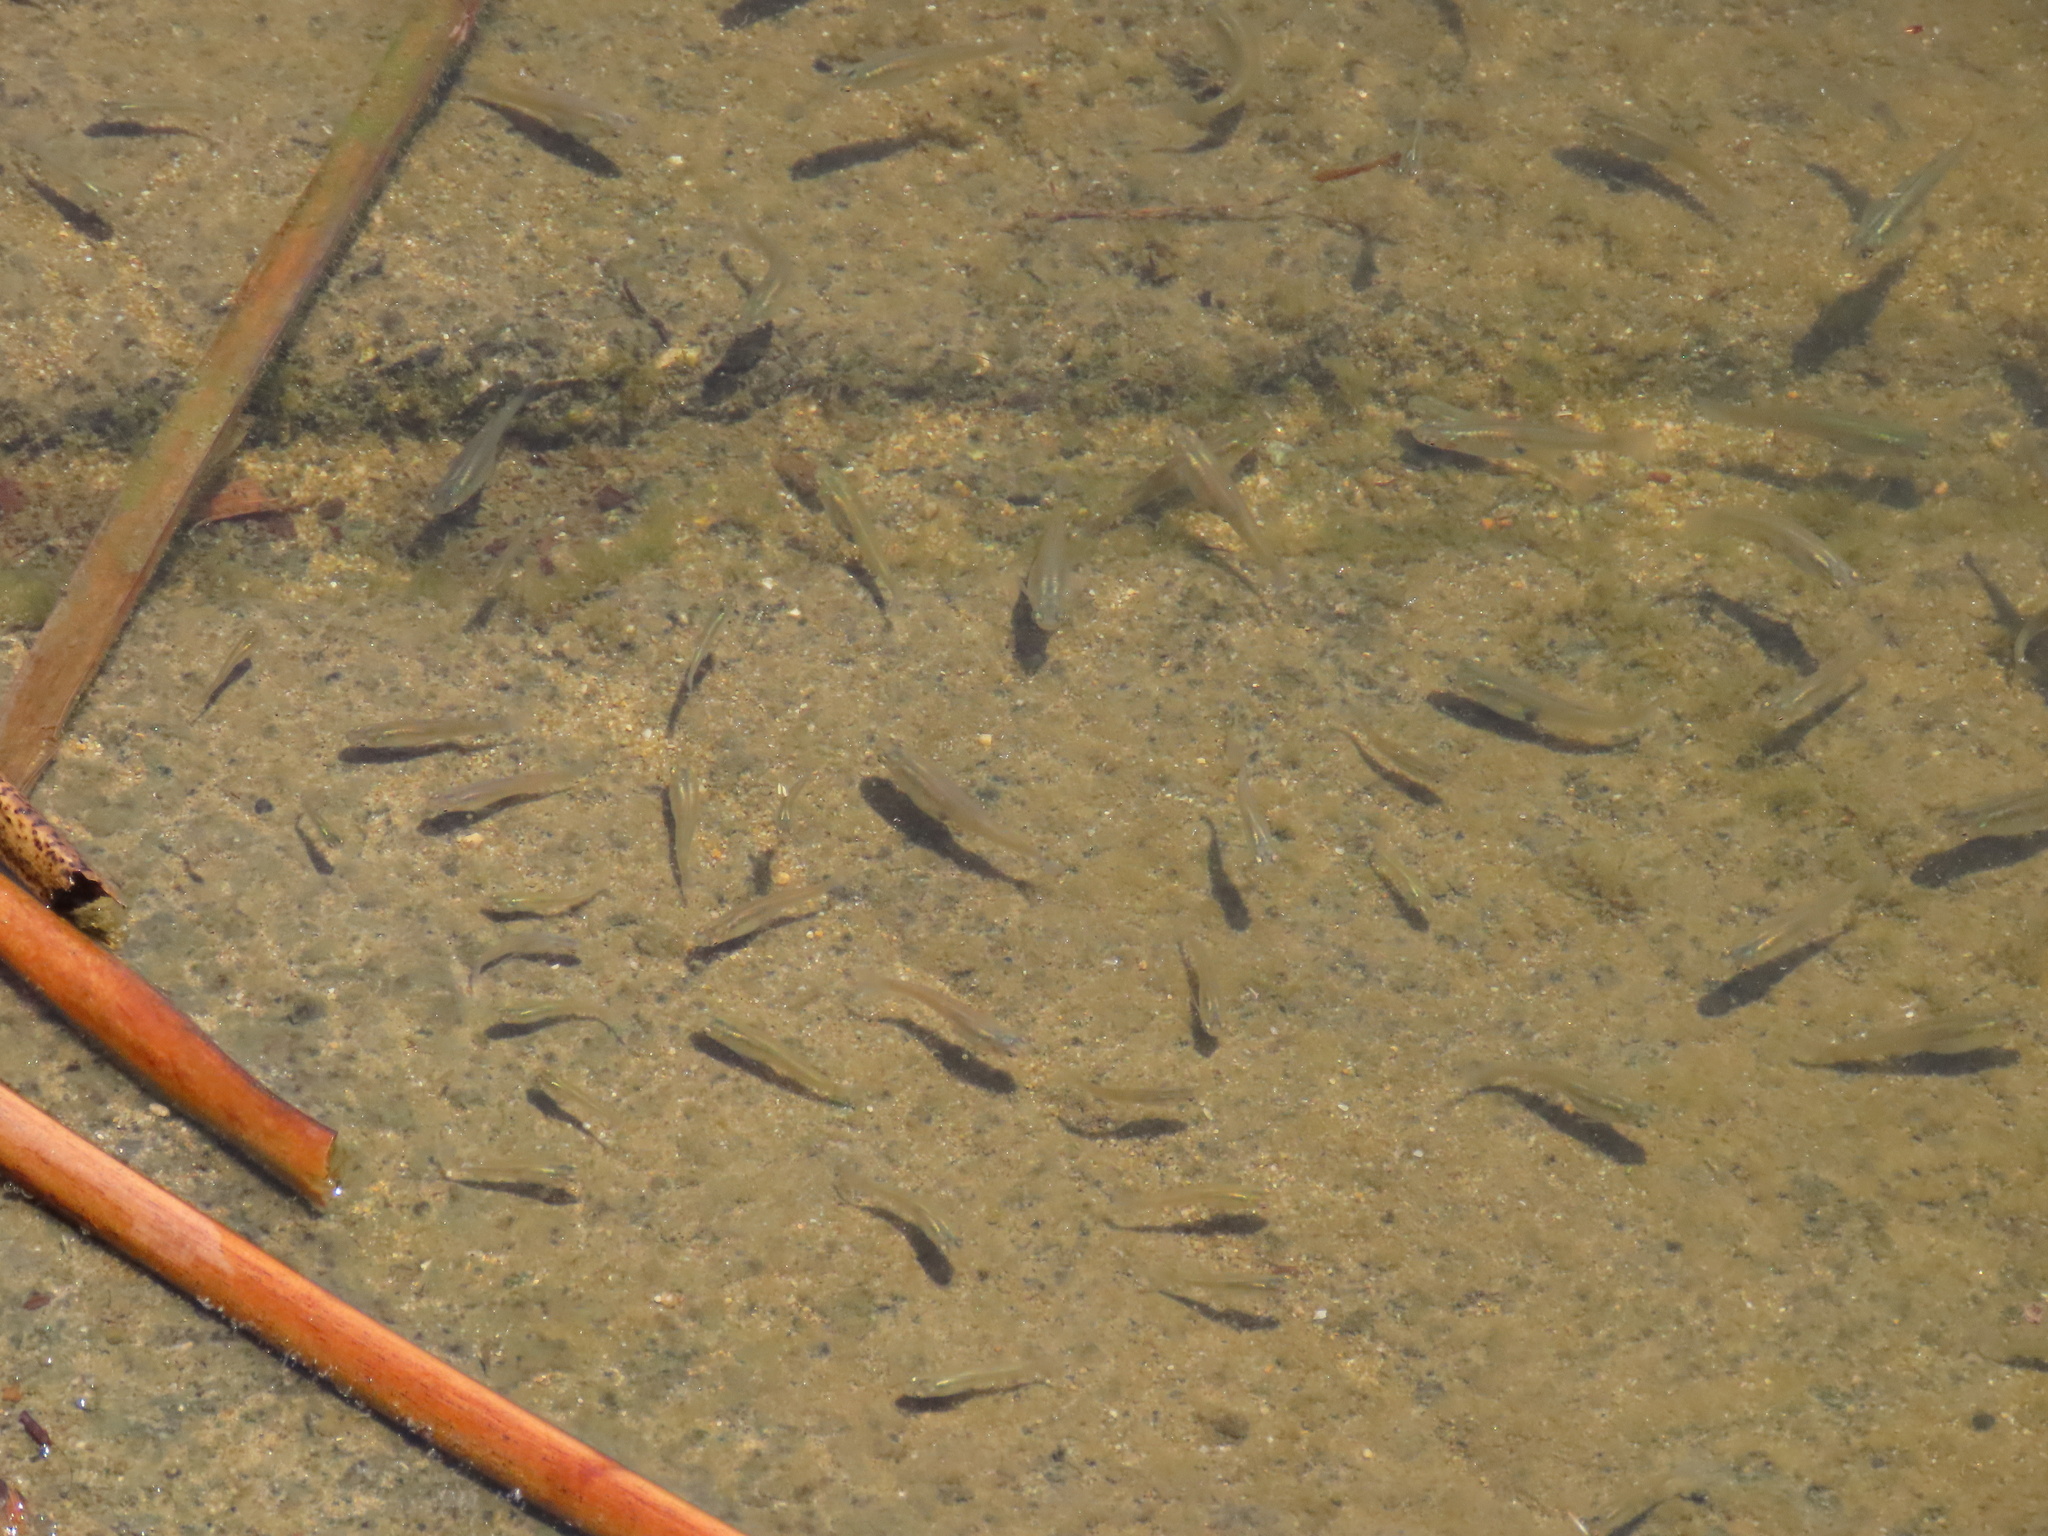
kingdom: Animalia
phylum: Chordata
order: Cyprinodontiformes
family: Poeciliidae
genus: Gambusia
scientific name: Gambusia affinis
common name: Mosquitofish
